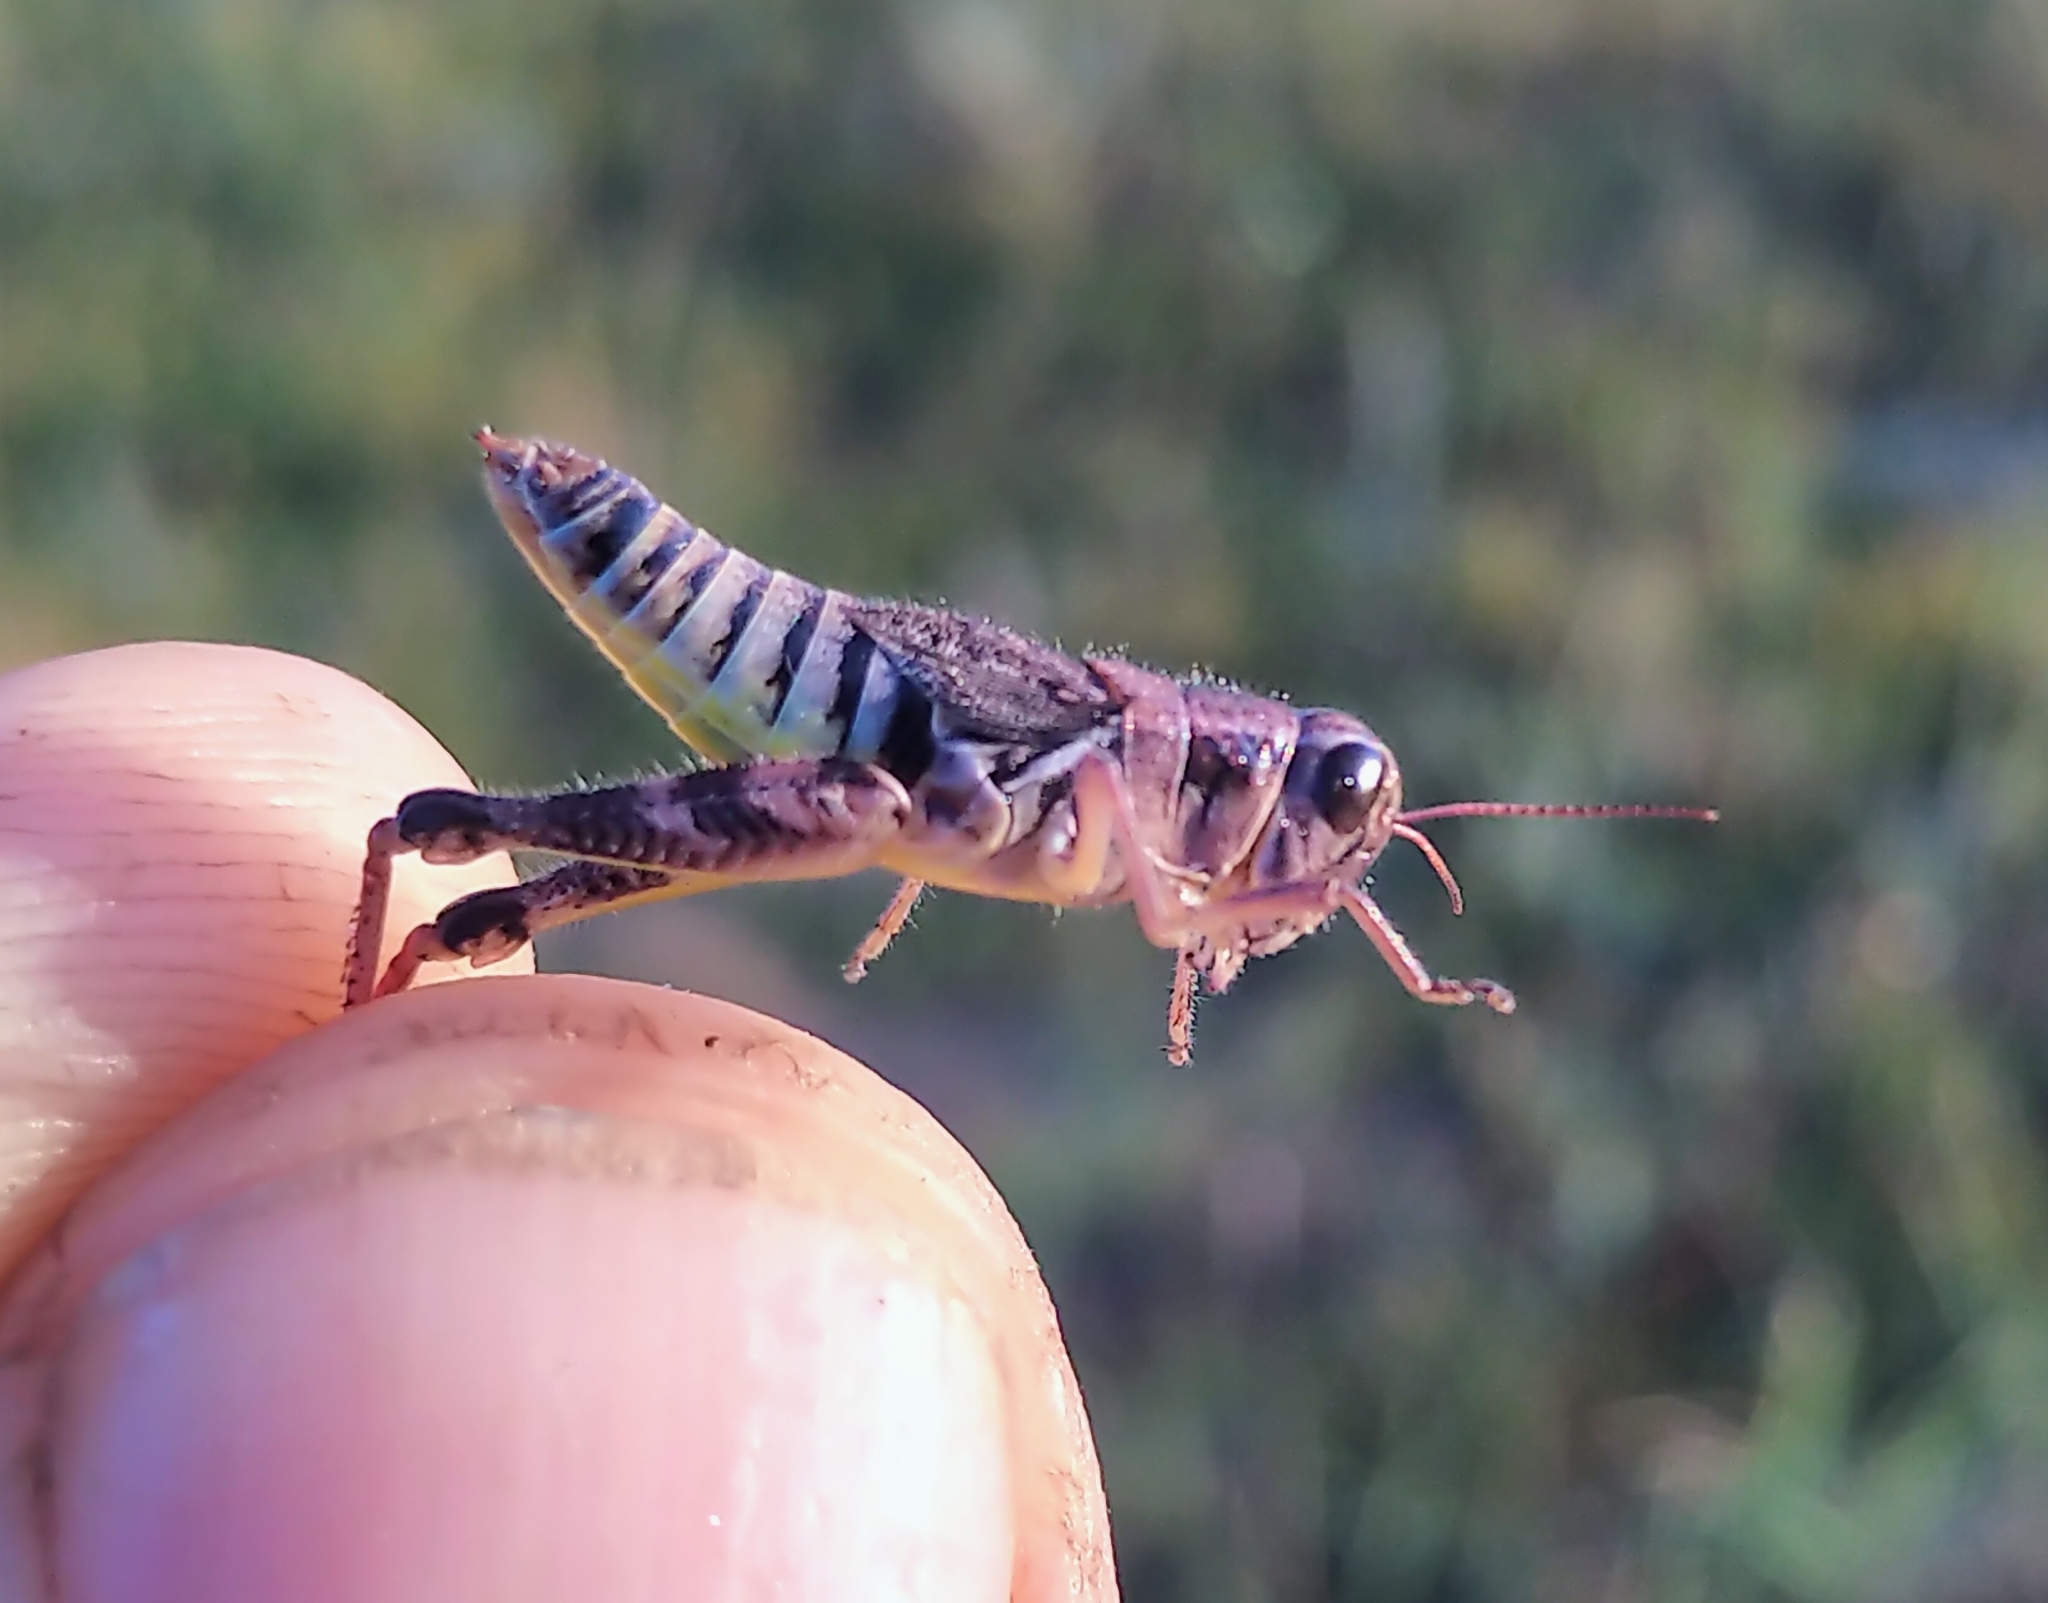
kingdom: Animalia
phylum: Arthropoda
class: Insecta
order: Orthoptera
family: Acrididae
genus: Melanoplus
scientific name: Melanoplus dawsoni
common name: Dawson grasshopper
